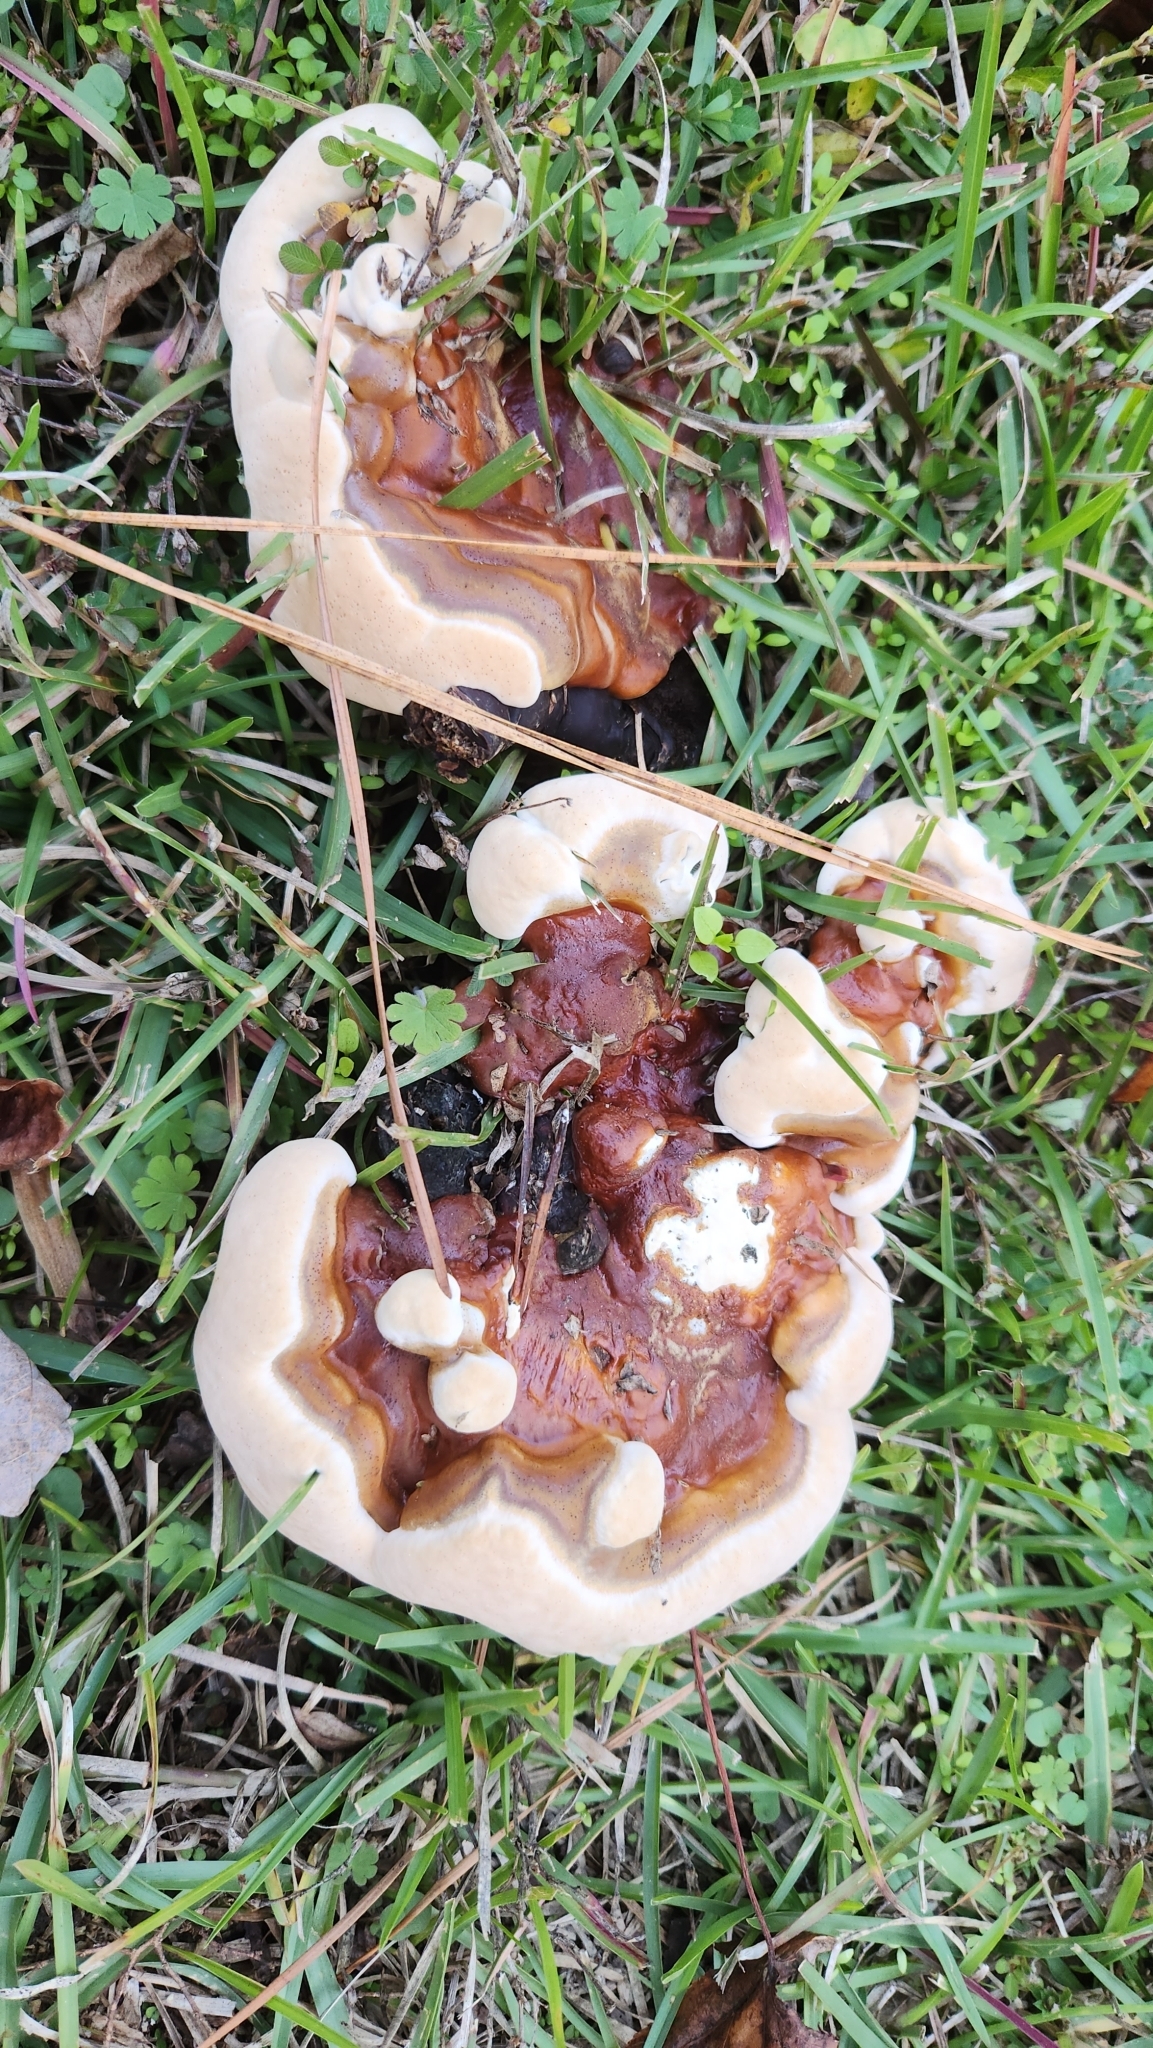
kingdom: Fungi
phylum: Basidiomycota
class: Agaricomycetes
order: Polyporales
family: Polyporaceae
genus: Ganoderma
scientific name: Ganoderma resinaceum
